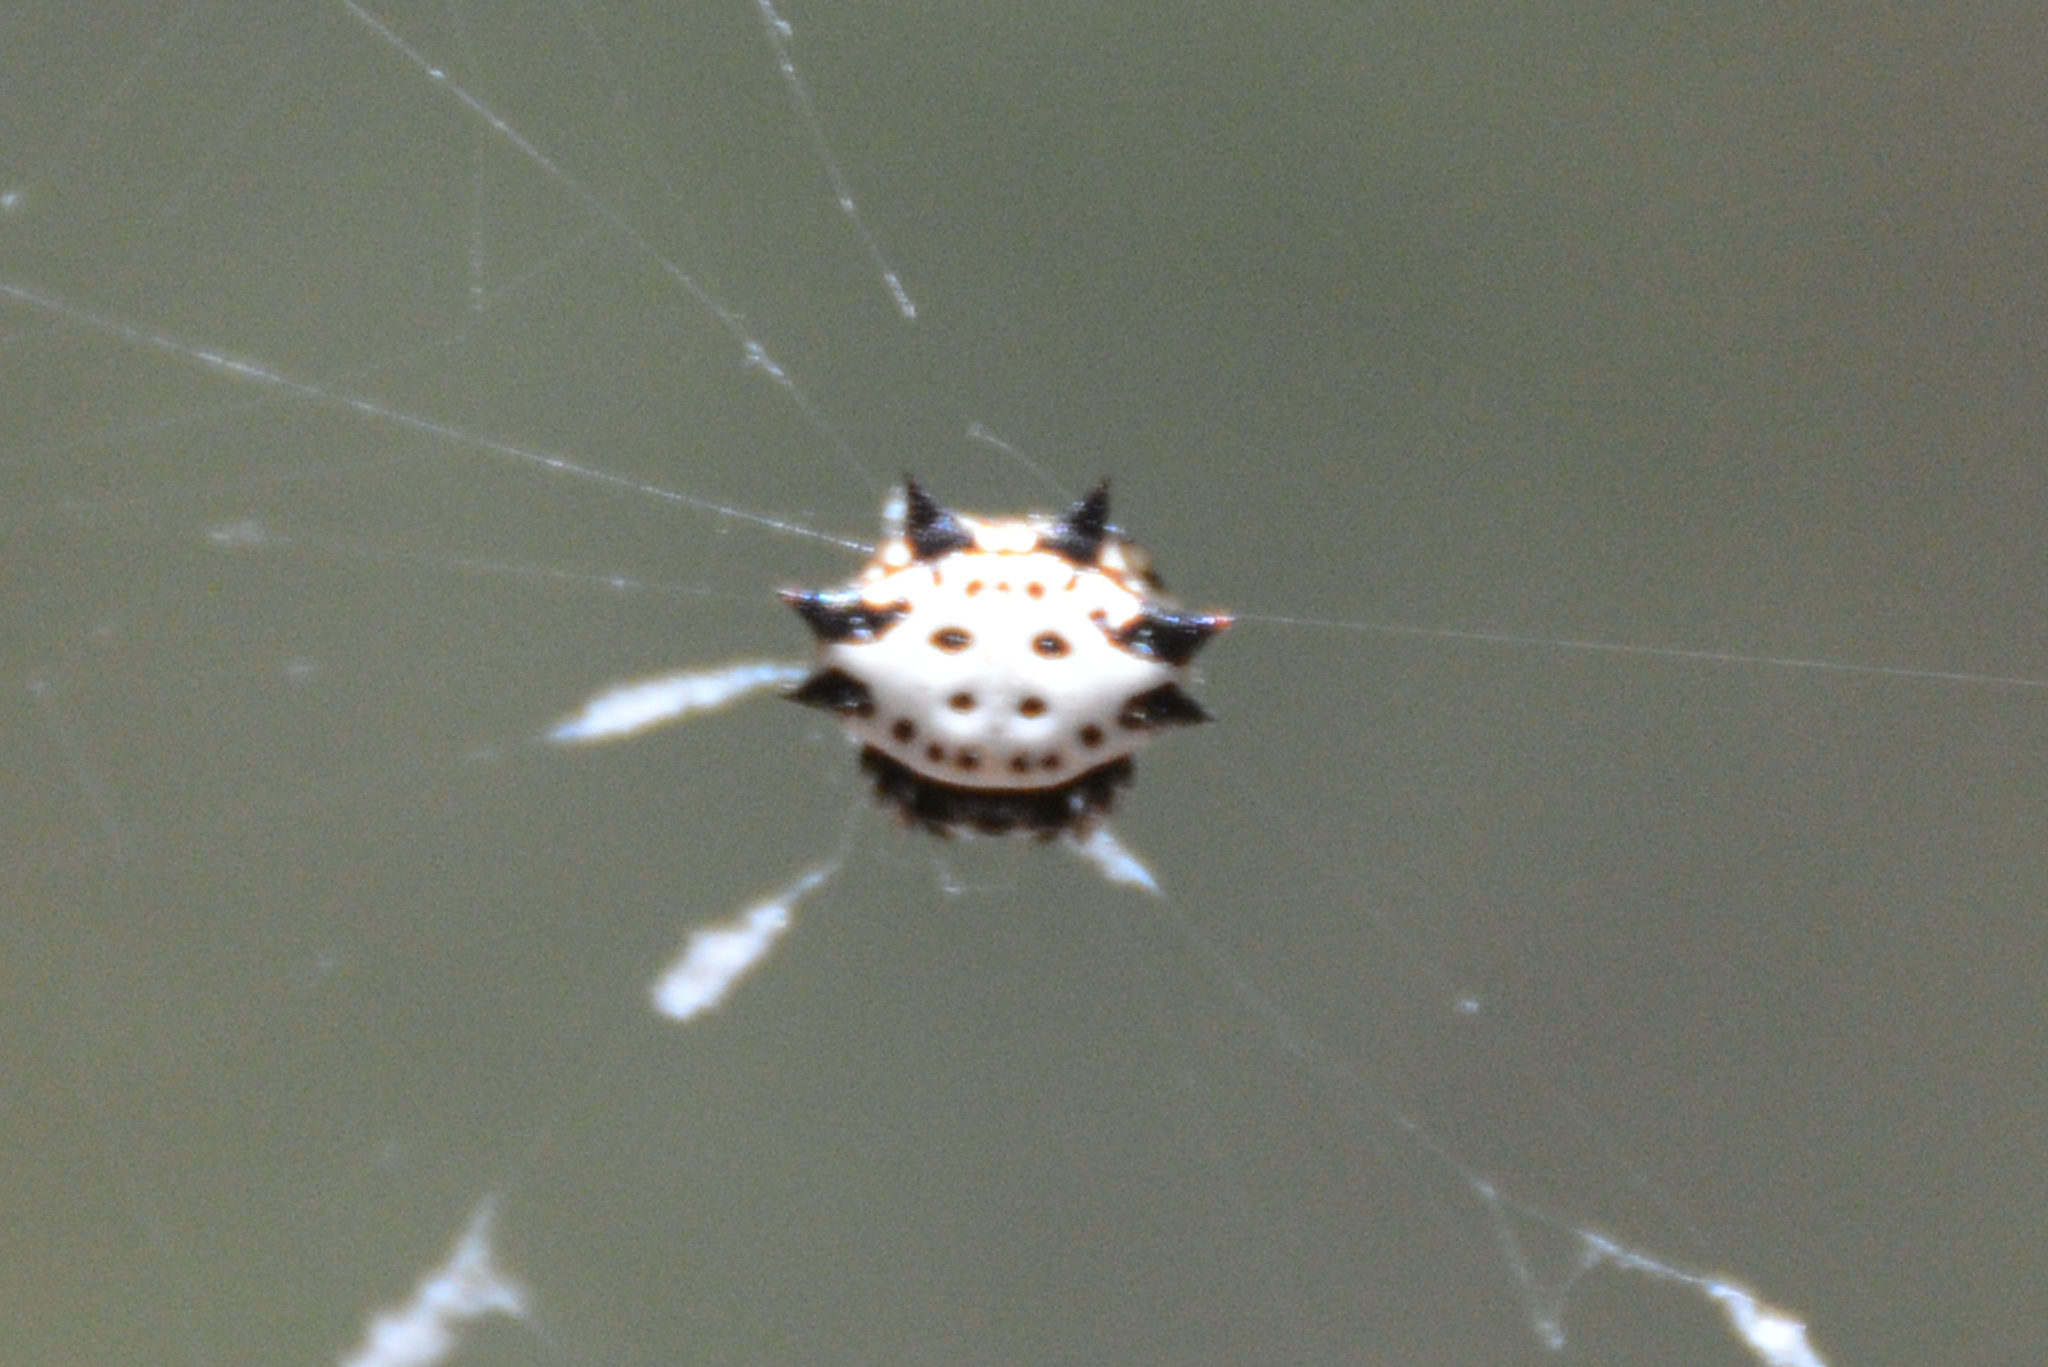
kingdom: Animalia
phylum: Arthropoda
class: Arachnida
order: Araneae
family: Araneidae
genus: Gasteracantha
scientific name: Gasteracantha cancriformis
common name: Orb weavers
